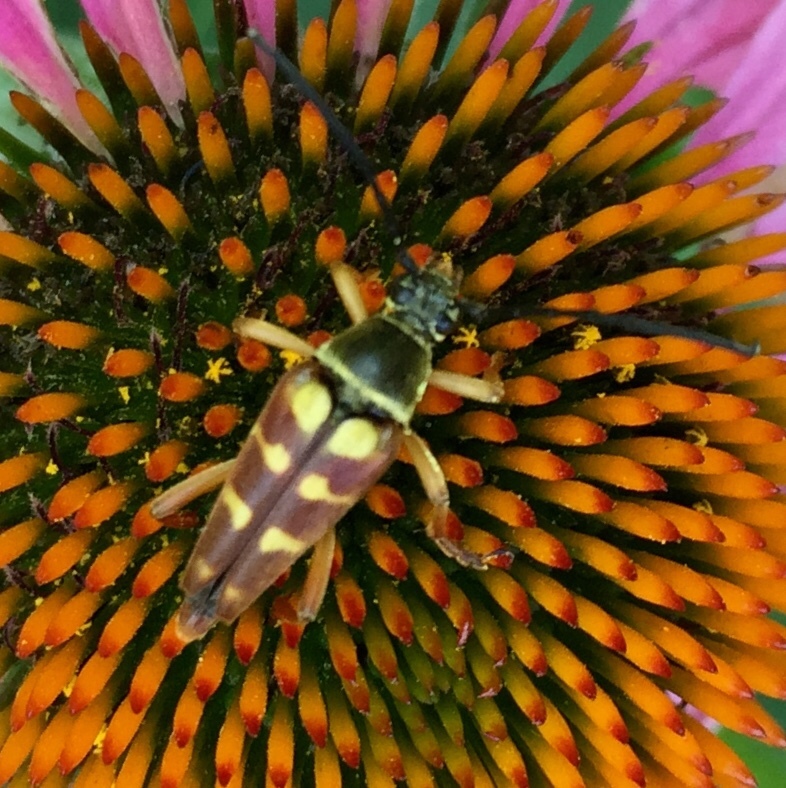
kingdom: Animalia
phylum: Arthropoda
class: Insecta
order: Coleoptera
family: Cerambycidae
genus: Typocerus
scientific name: Typocerus velutinus
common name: Banded longhorn beetle
